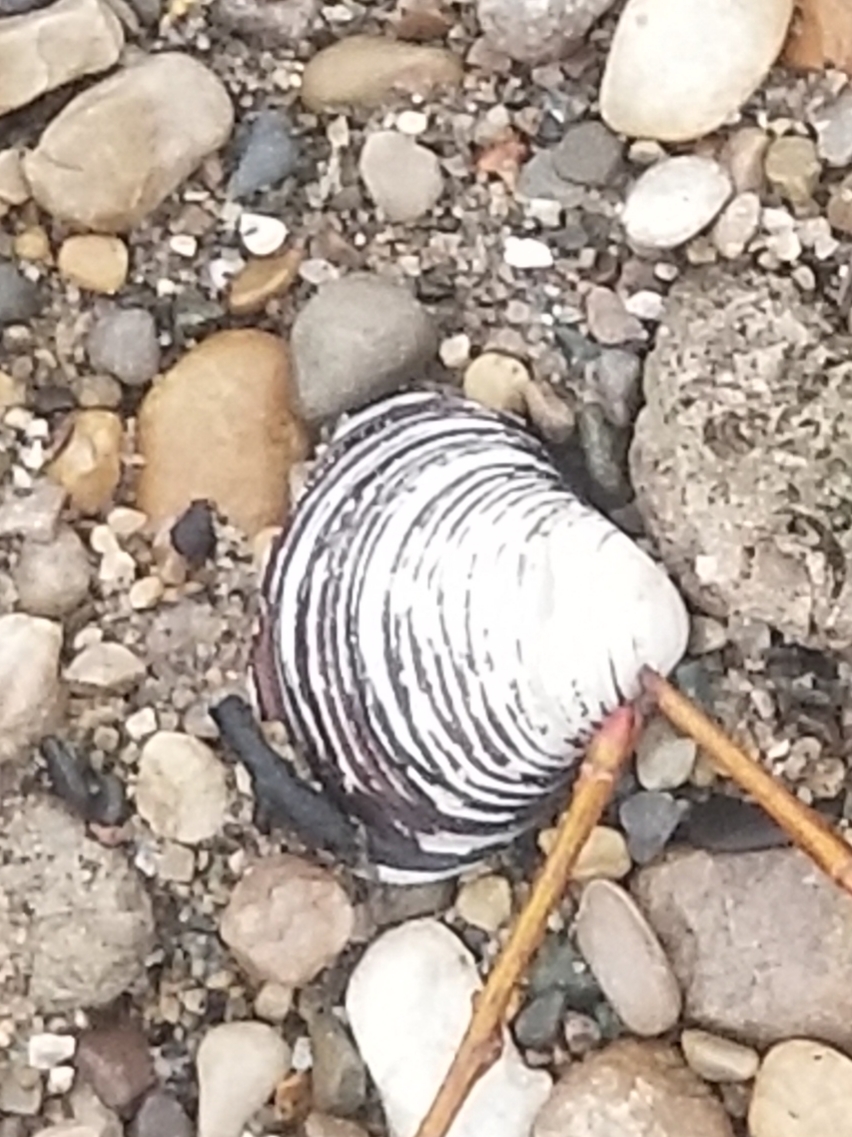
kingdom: Animalia
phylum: Mollusca
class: Bivalvia
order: Venerida
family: Cyrenidae
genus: Corbicula
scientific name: Corbicula fluminea
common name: Asian clam
